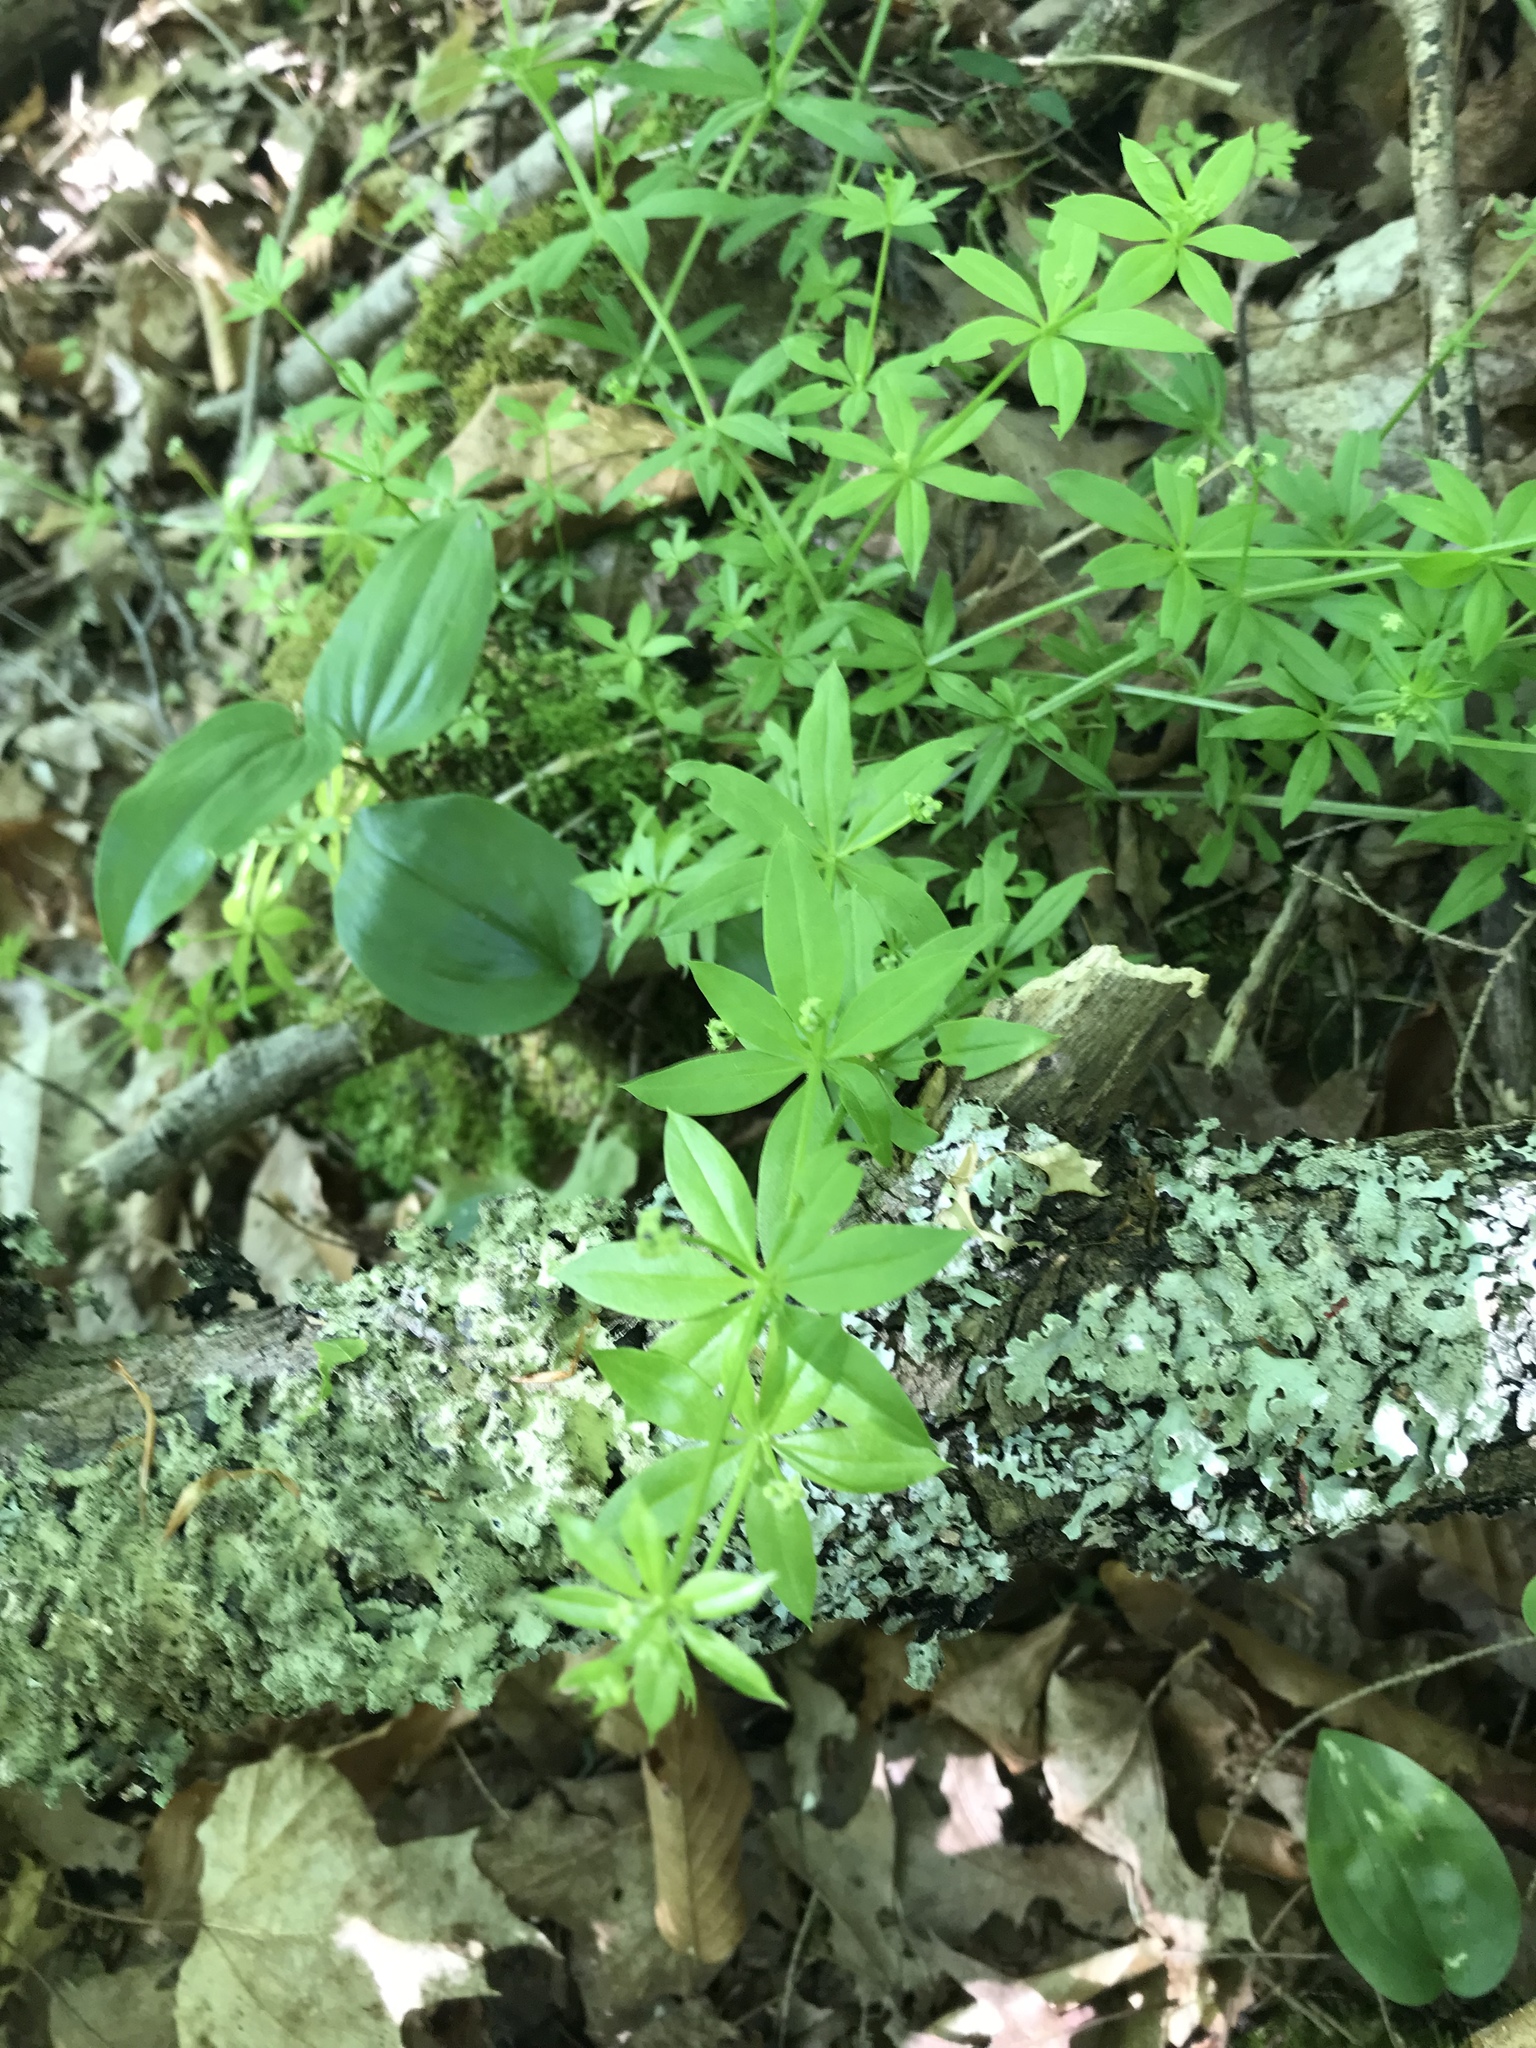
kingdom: Plantae
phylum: Tracheophyta
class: Magnoliopsida
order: Gentianales
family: Rubiaceae
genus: Galium
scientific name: Galium triflorum
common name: Fragrant bedstraw
